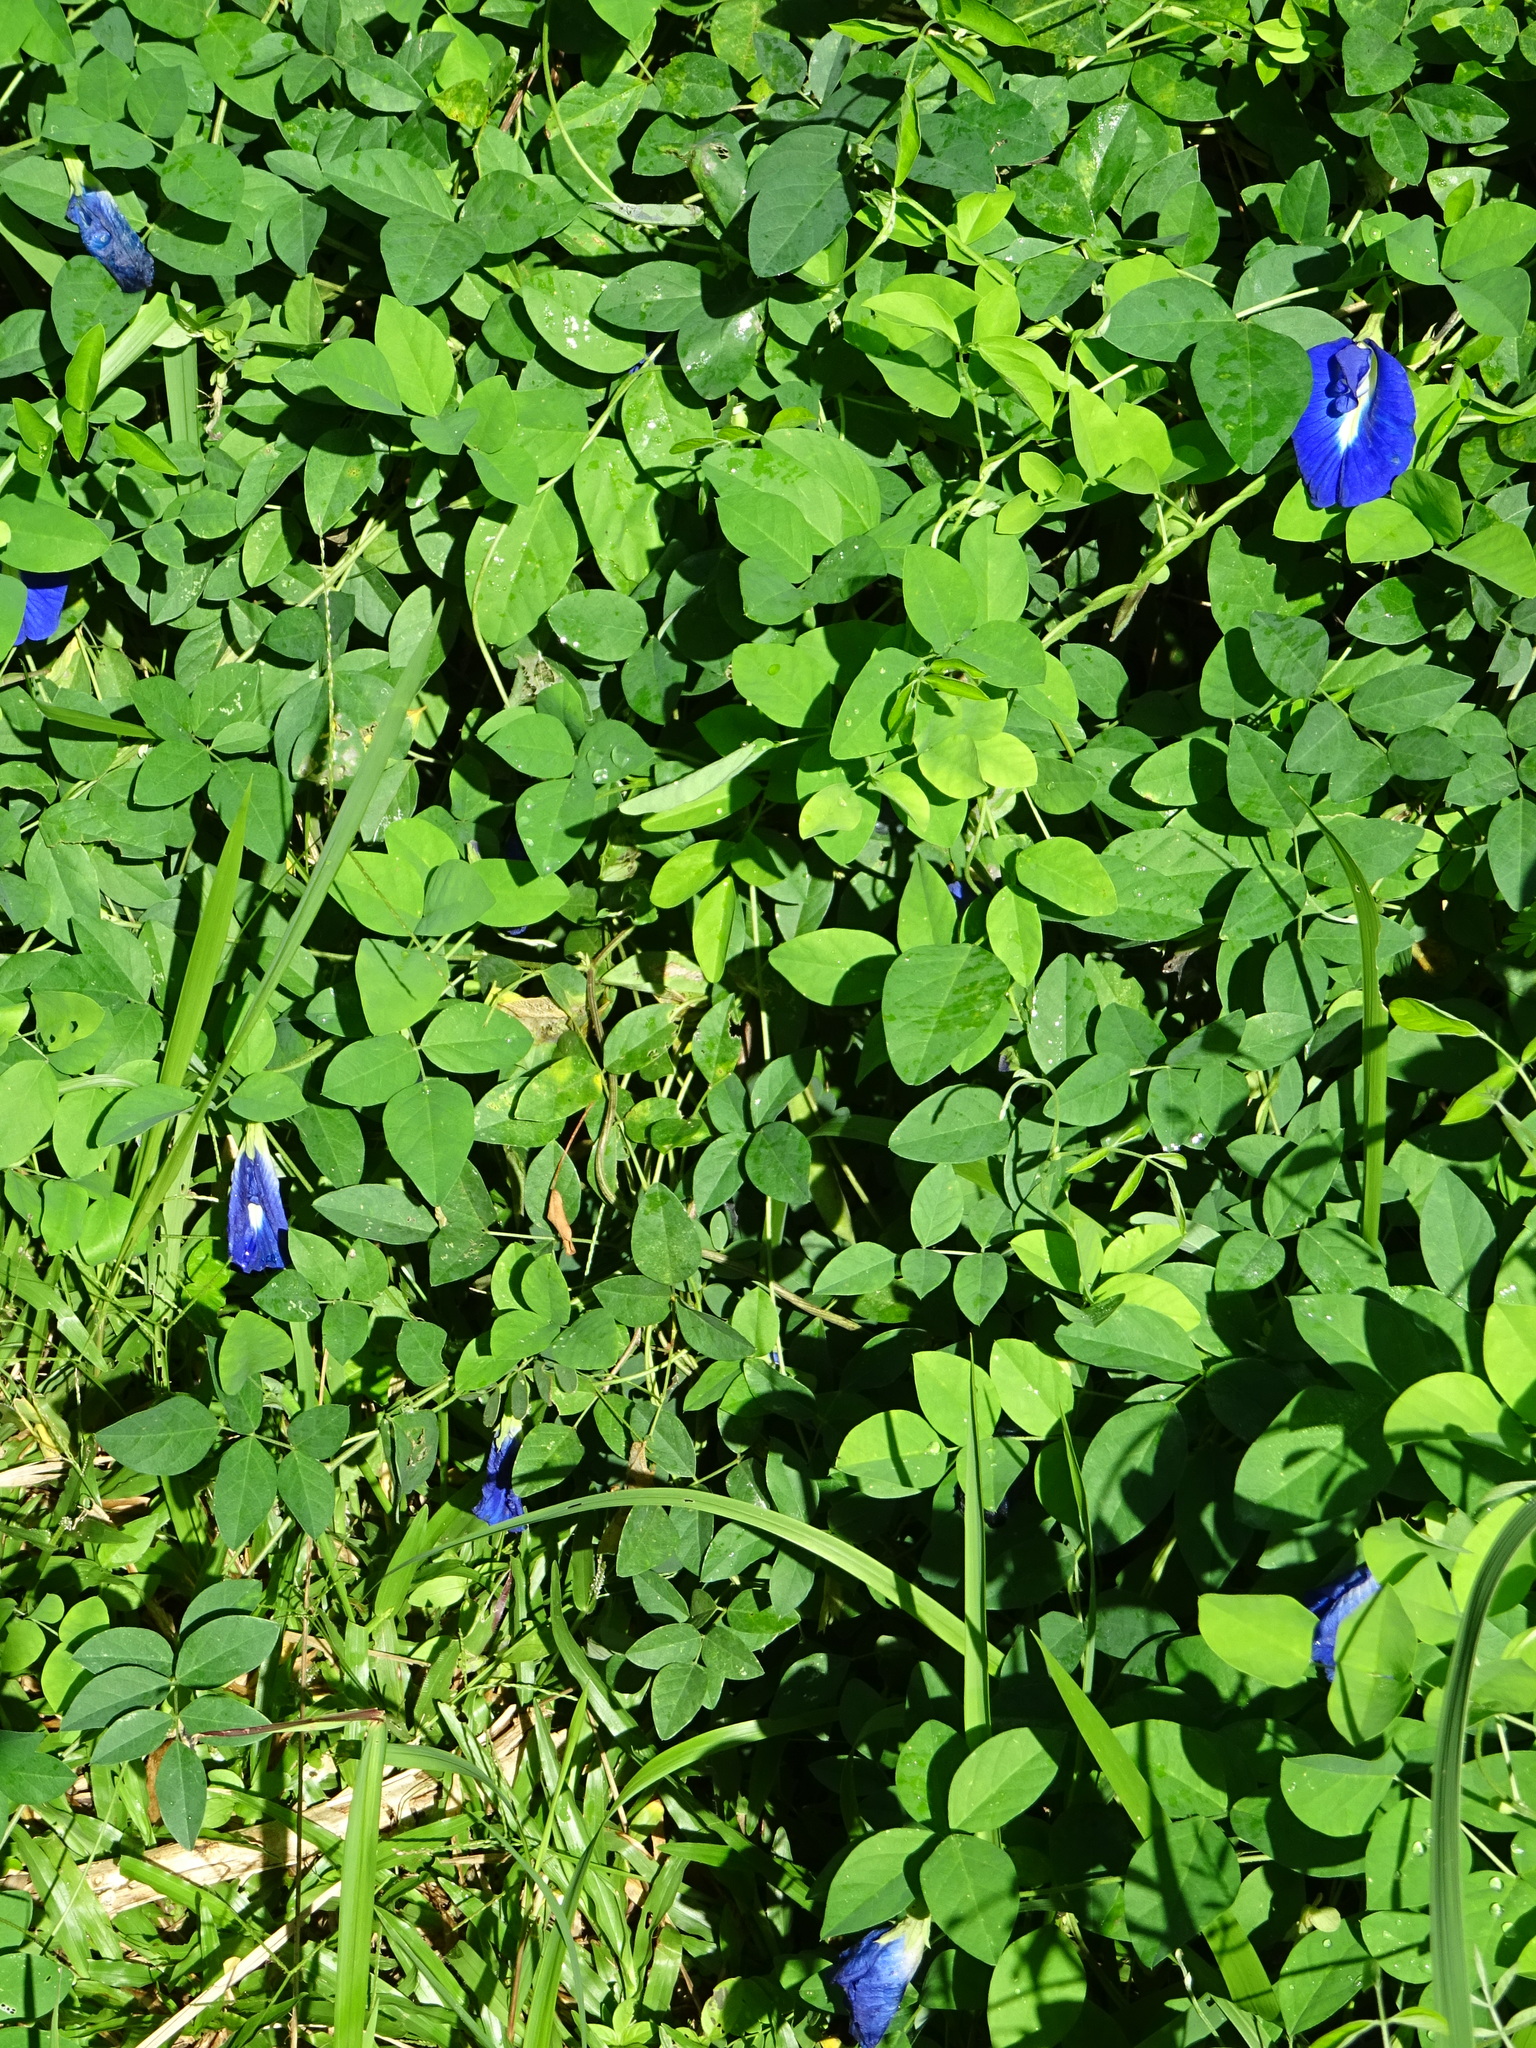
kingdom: Plantae
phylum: Tracheophyta
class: Magnoliopsida
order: Fabales
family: Fabaceae
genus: Clitoria
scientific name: Clitoria ternatea
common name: Asian pigeonwings
